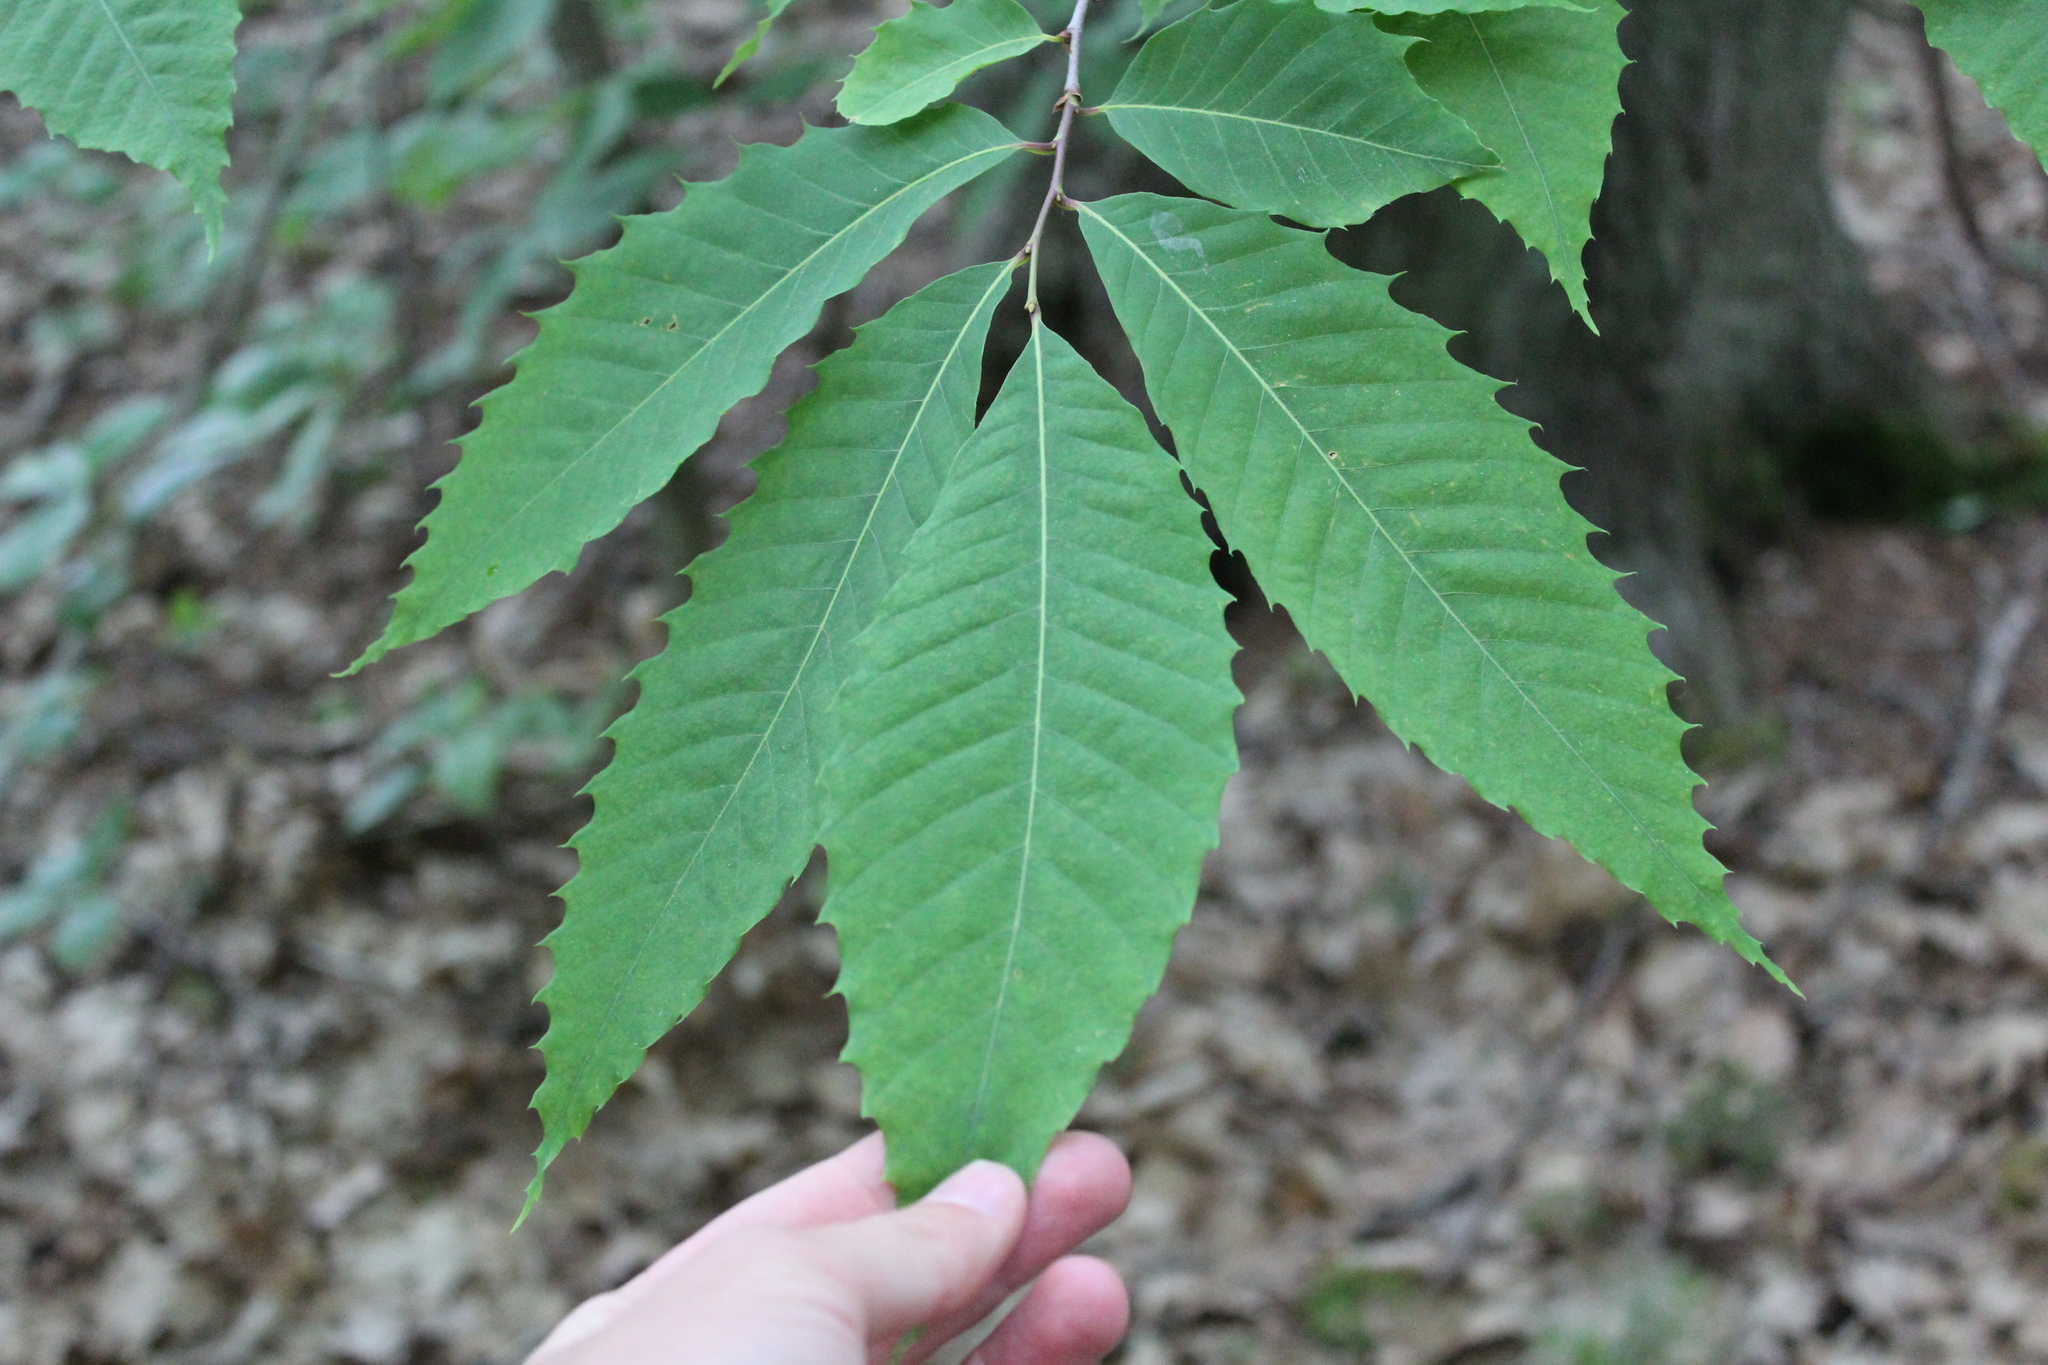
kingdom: Plantae
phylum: Tracheophyta
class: Magnoliopsida
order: Fagales
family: Fagaceae
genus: Castanea
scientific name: Castanea dentata
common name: American chestnut
